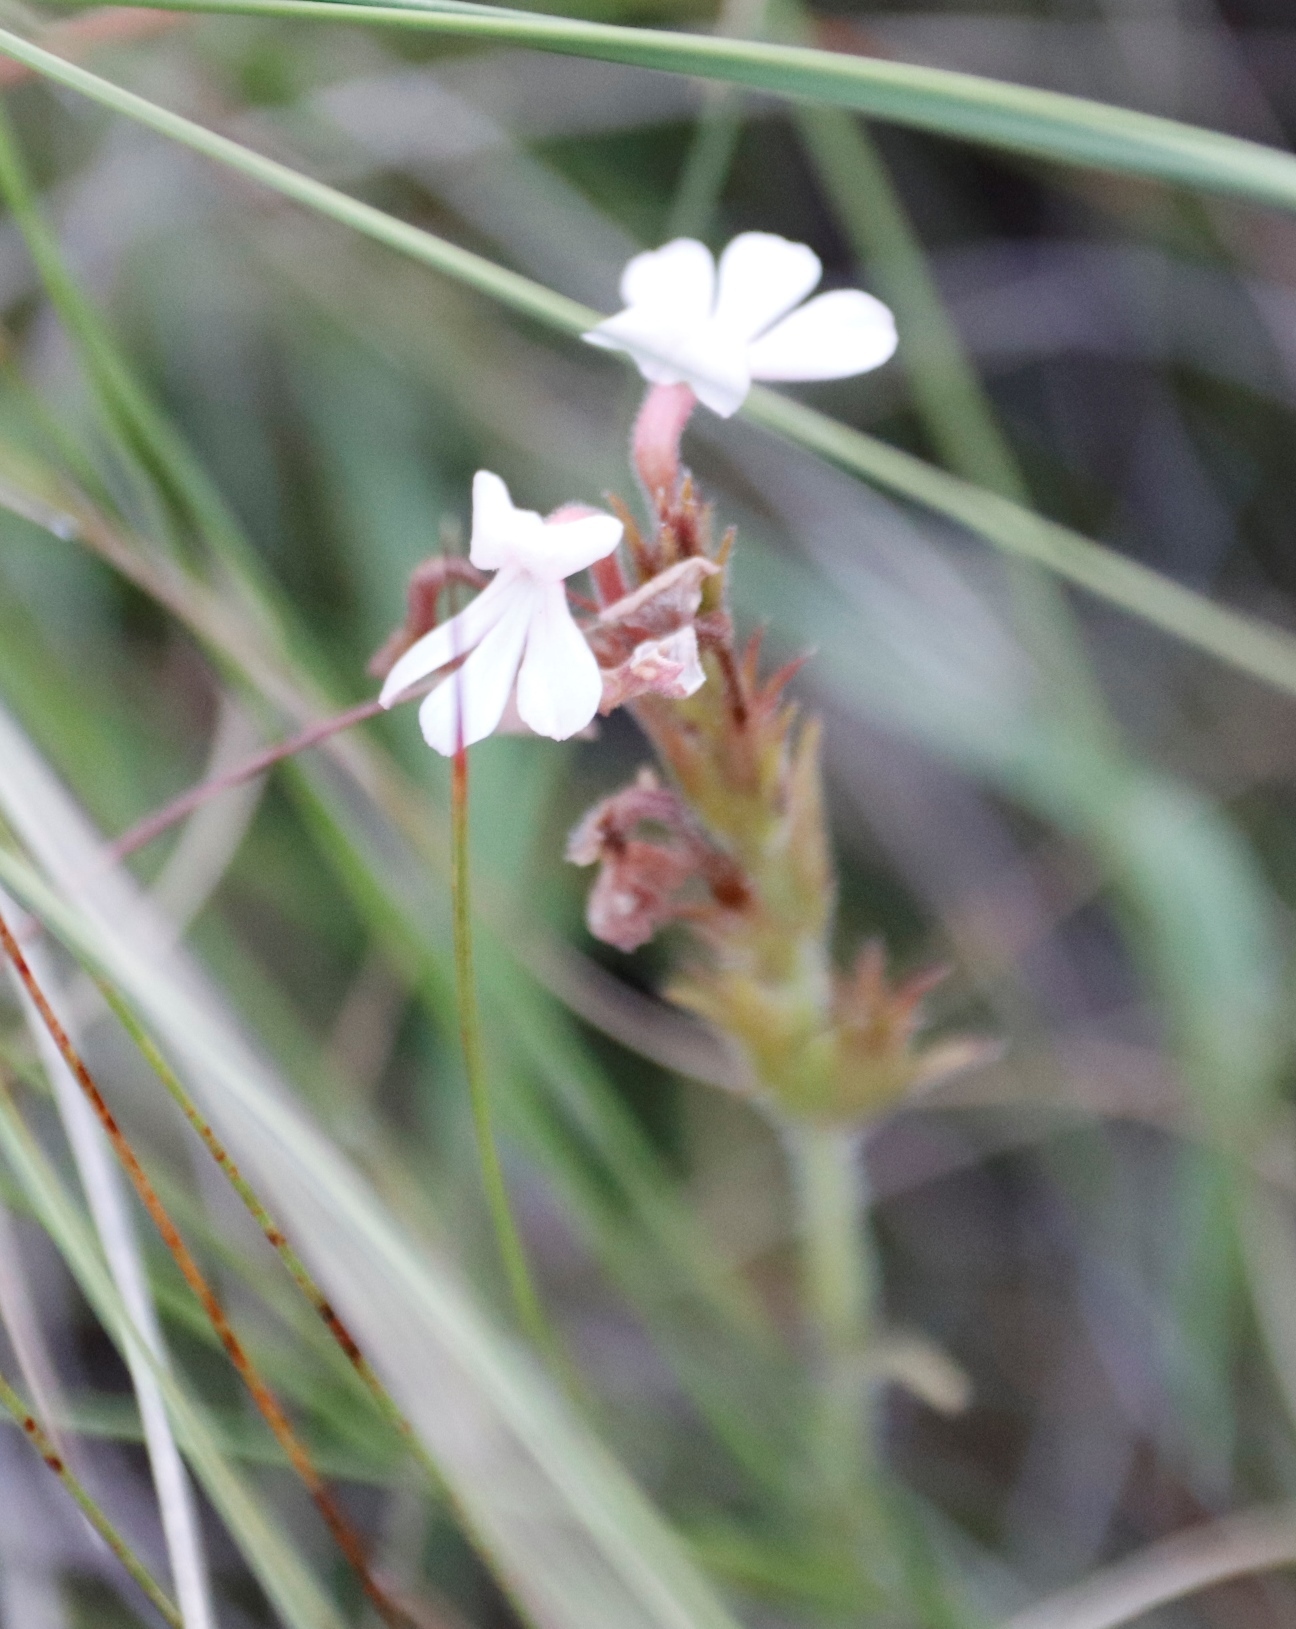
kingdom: Plantae
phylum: Tracheophyta
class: Magnoliopsida
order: Lamiales
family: Orobanchaceae
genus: Striga
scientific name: Striga elegans
